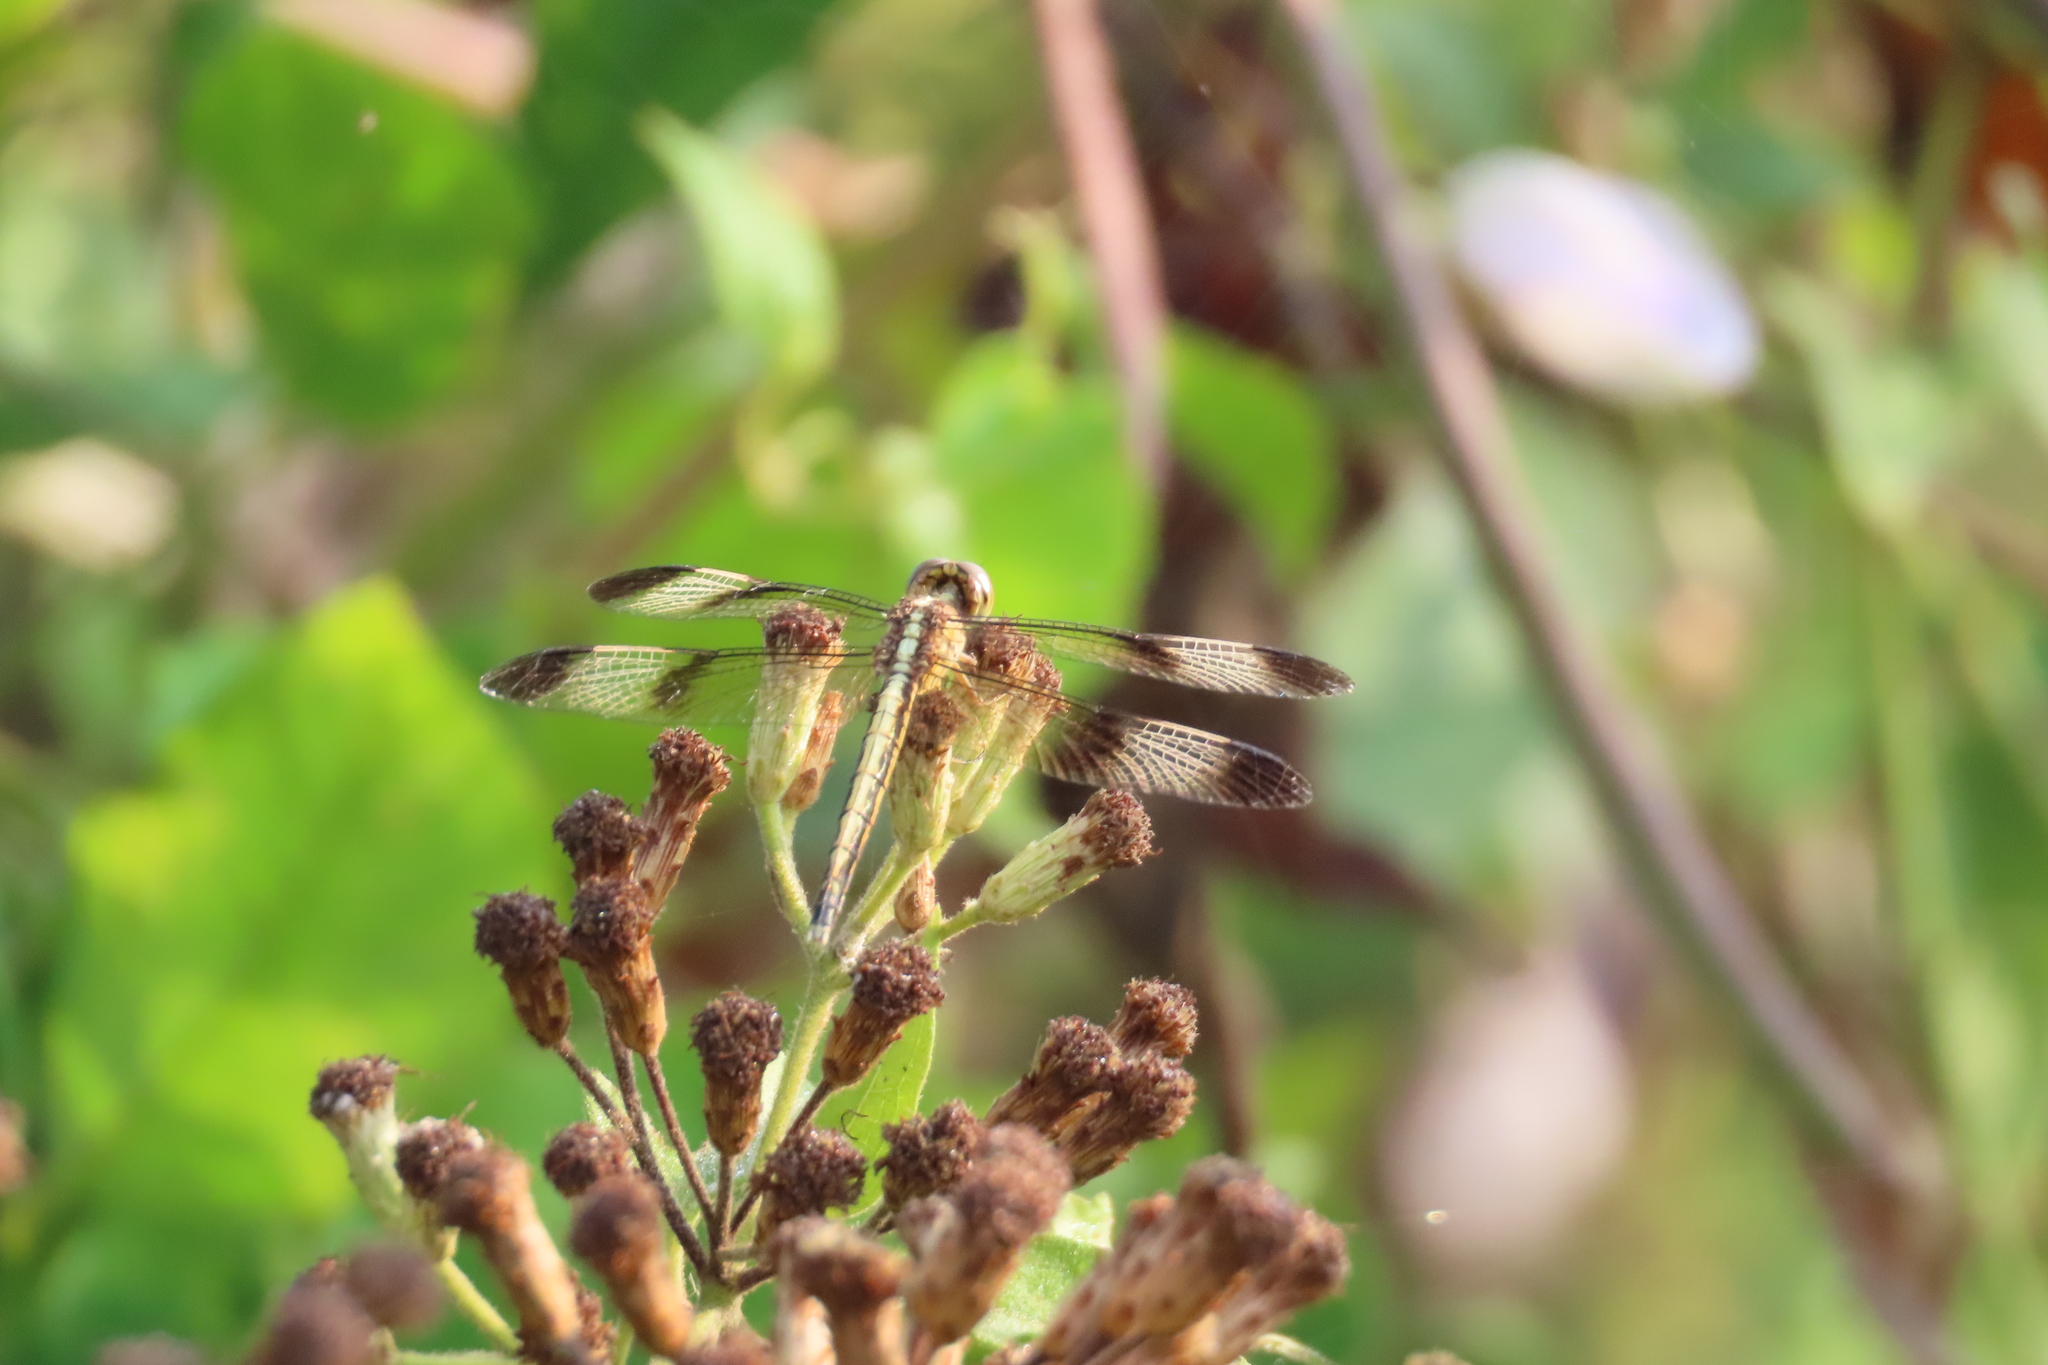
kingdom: Animalia
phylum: Arthropoda
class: Insecta
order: Odonata
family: Libellulidae
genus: Neurothemis
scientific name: Neurothemis tullia
